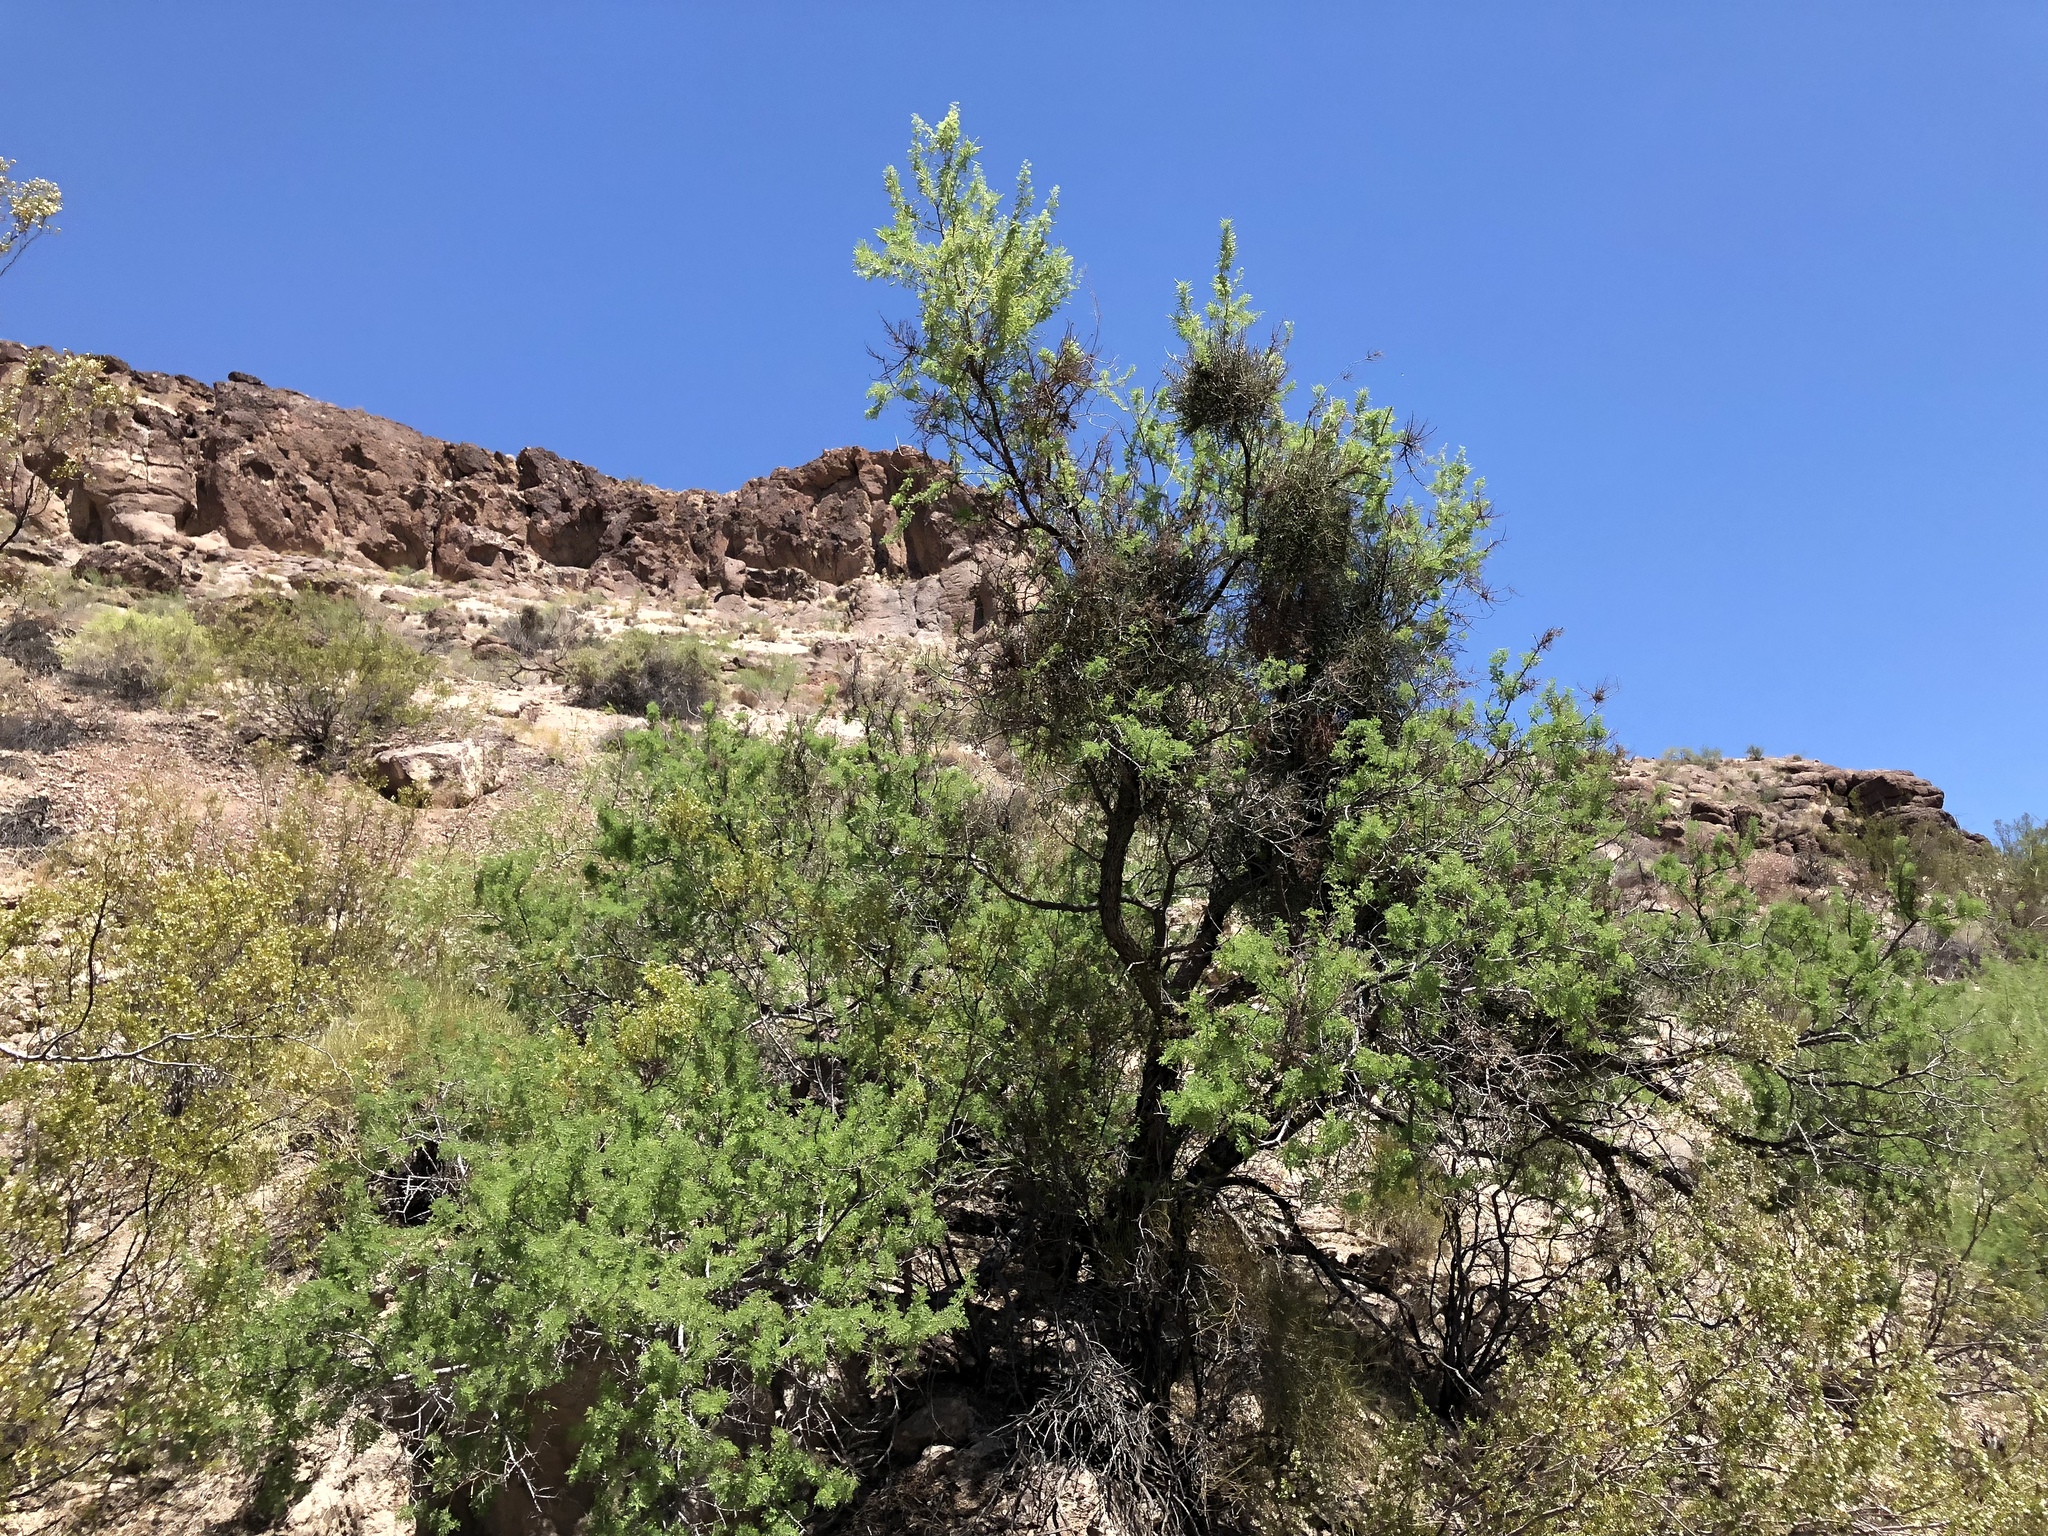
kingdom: Plantae
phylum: Tracheophyta
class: Magnoliopsida
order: Santalales
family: Viscaceae
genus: Phoradendron
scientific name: Phoradendron californicum
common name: Acacia mistletoe
